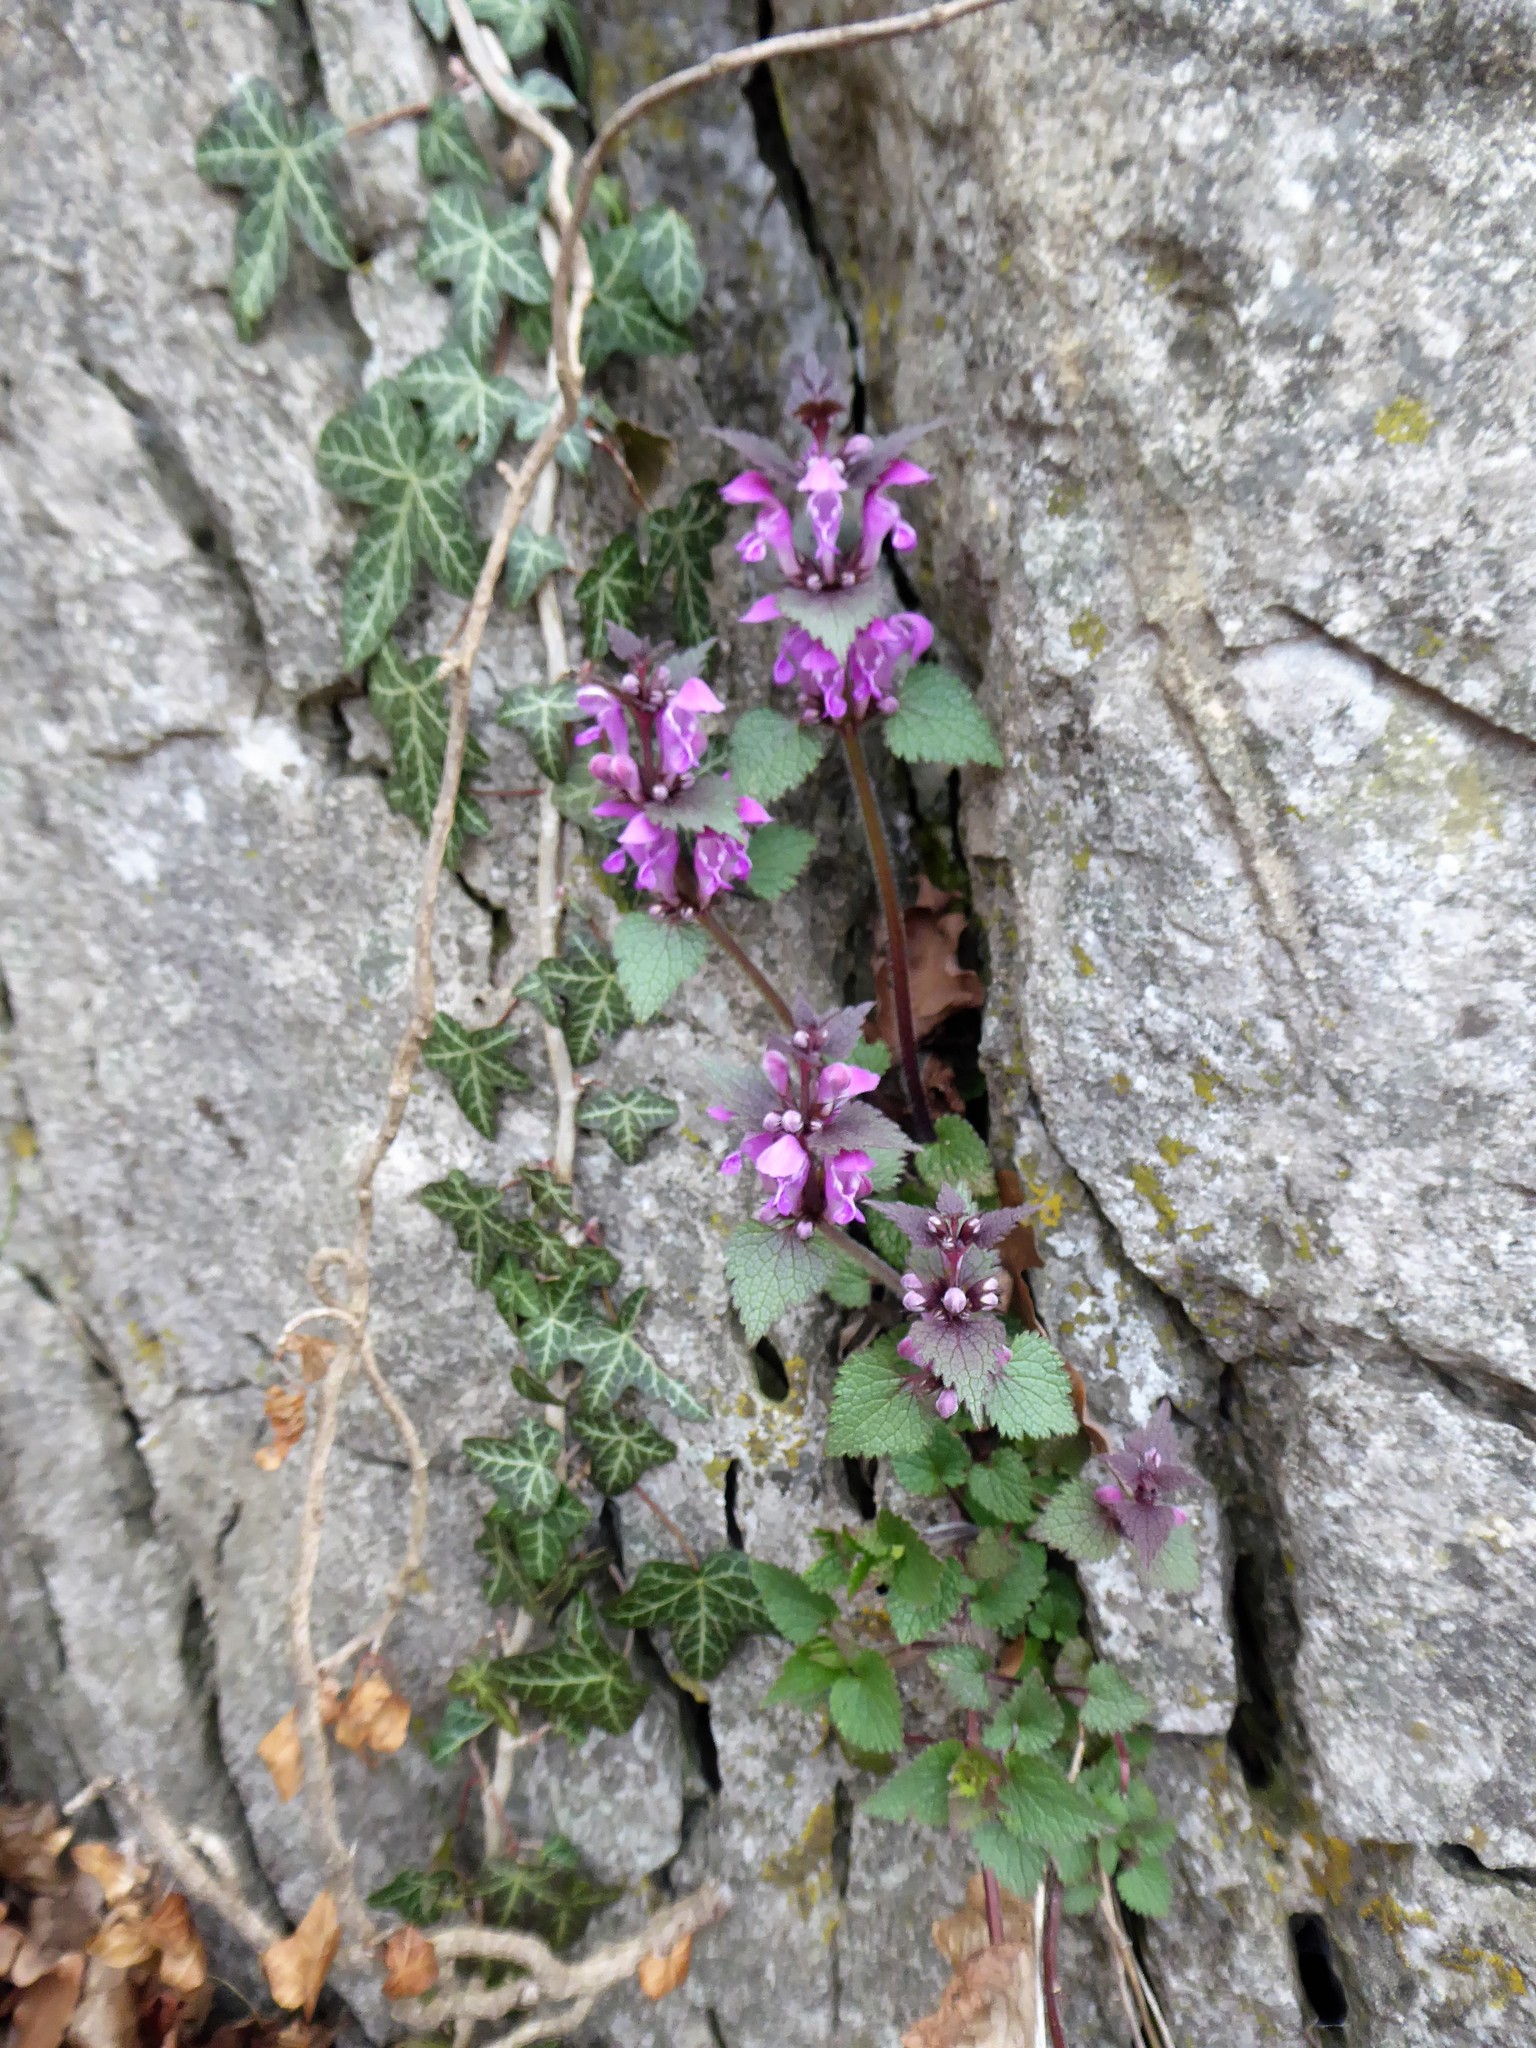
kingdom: Plantae
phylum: Tracheophyta
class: Magnoliopsida
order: Lamiales
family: Lamiaceae
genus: Lamium
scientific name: Lamium maculatum
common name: Spotted dead-nettle
